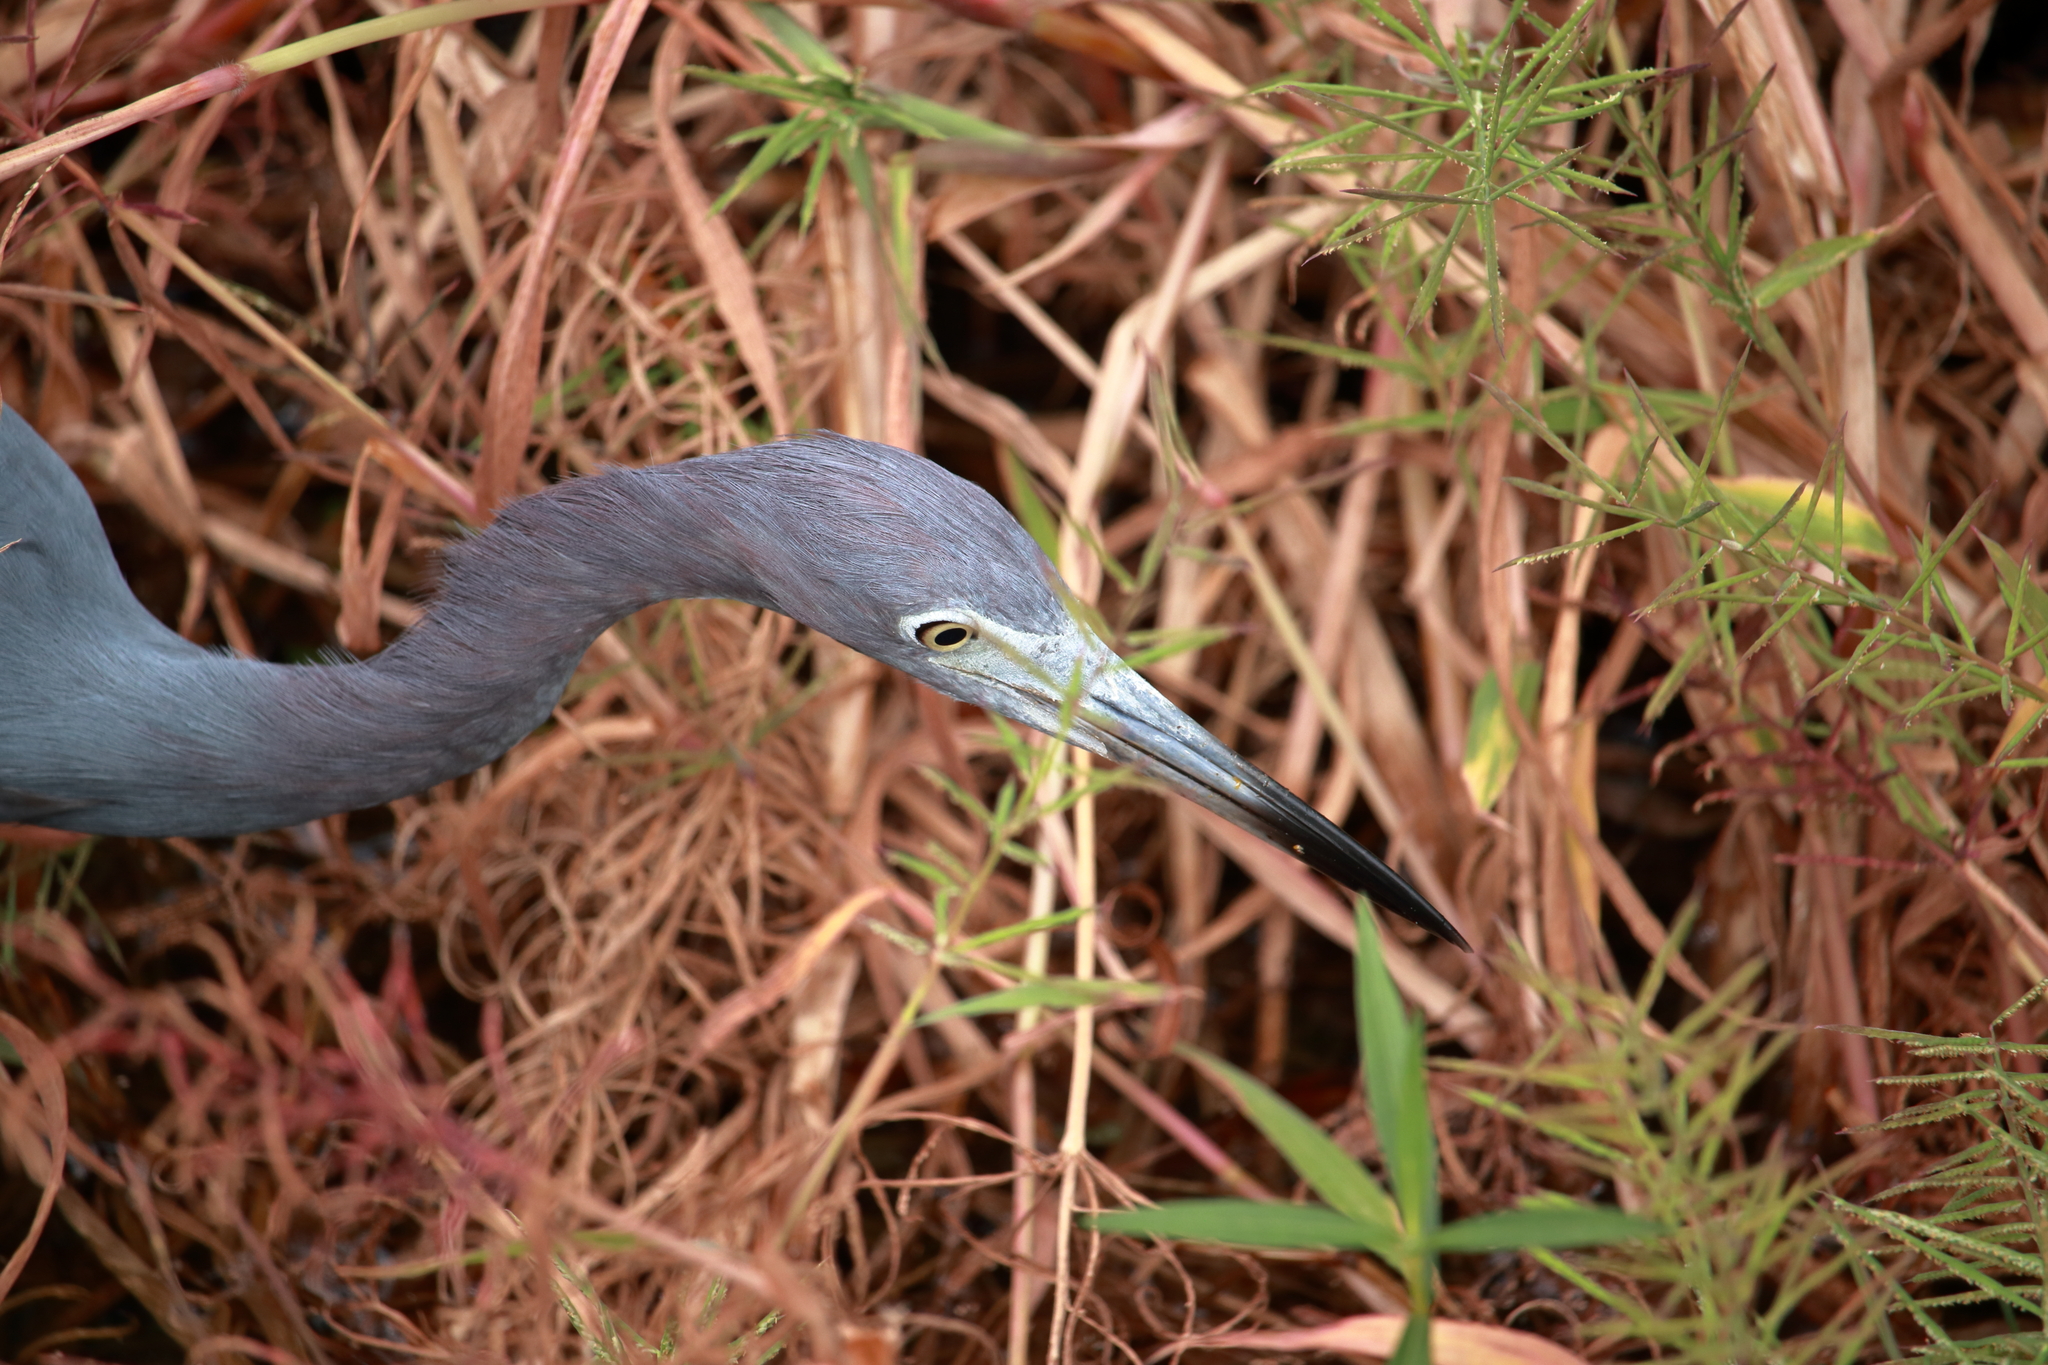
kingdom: Animalia
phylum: Chordata
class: Aves
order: Pelecaniformes
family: Ardeidae
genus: Egretta
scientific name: Egretta caerulea
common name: Little blue heron
